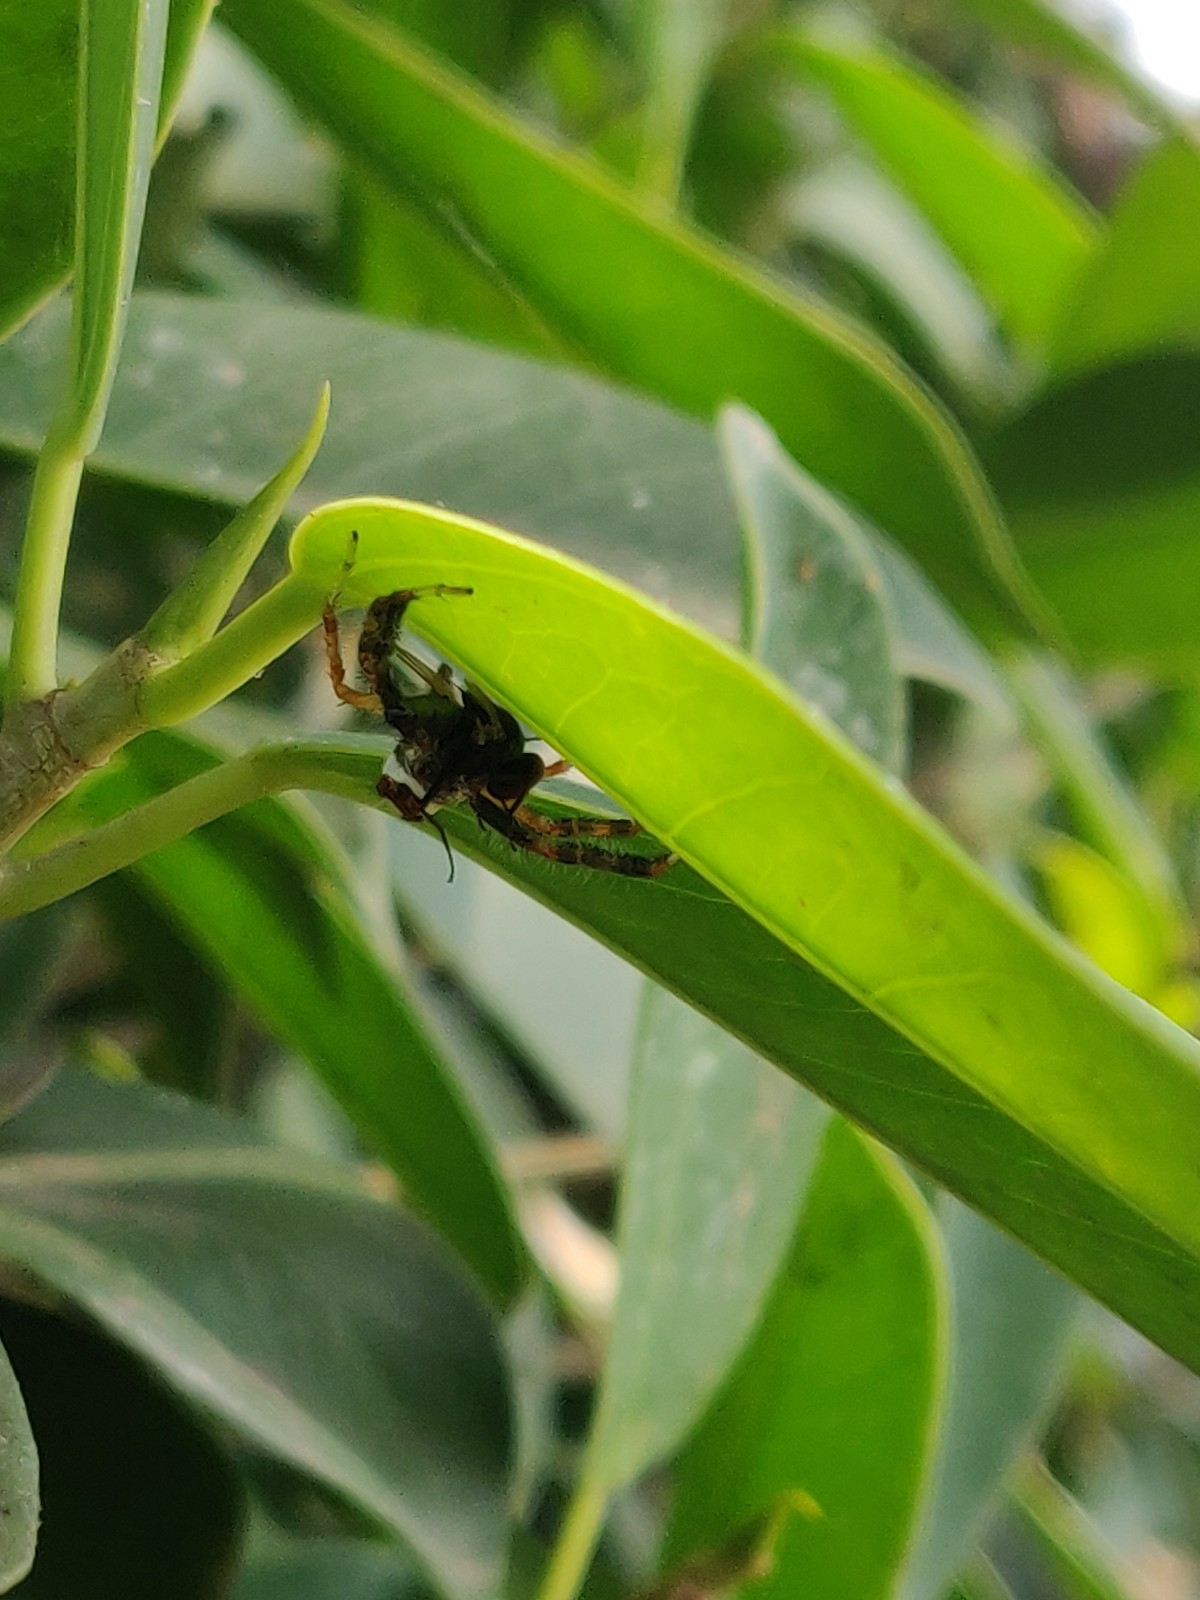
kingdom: Animalia
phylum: Arthropoda
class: Arachnida
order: Araneae
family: Salticidae
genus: Telamonia
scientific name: Telamonia dimidiata
